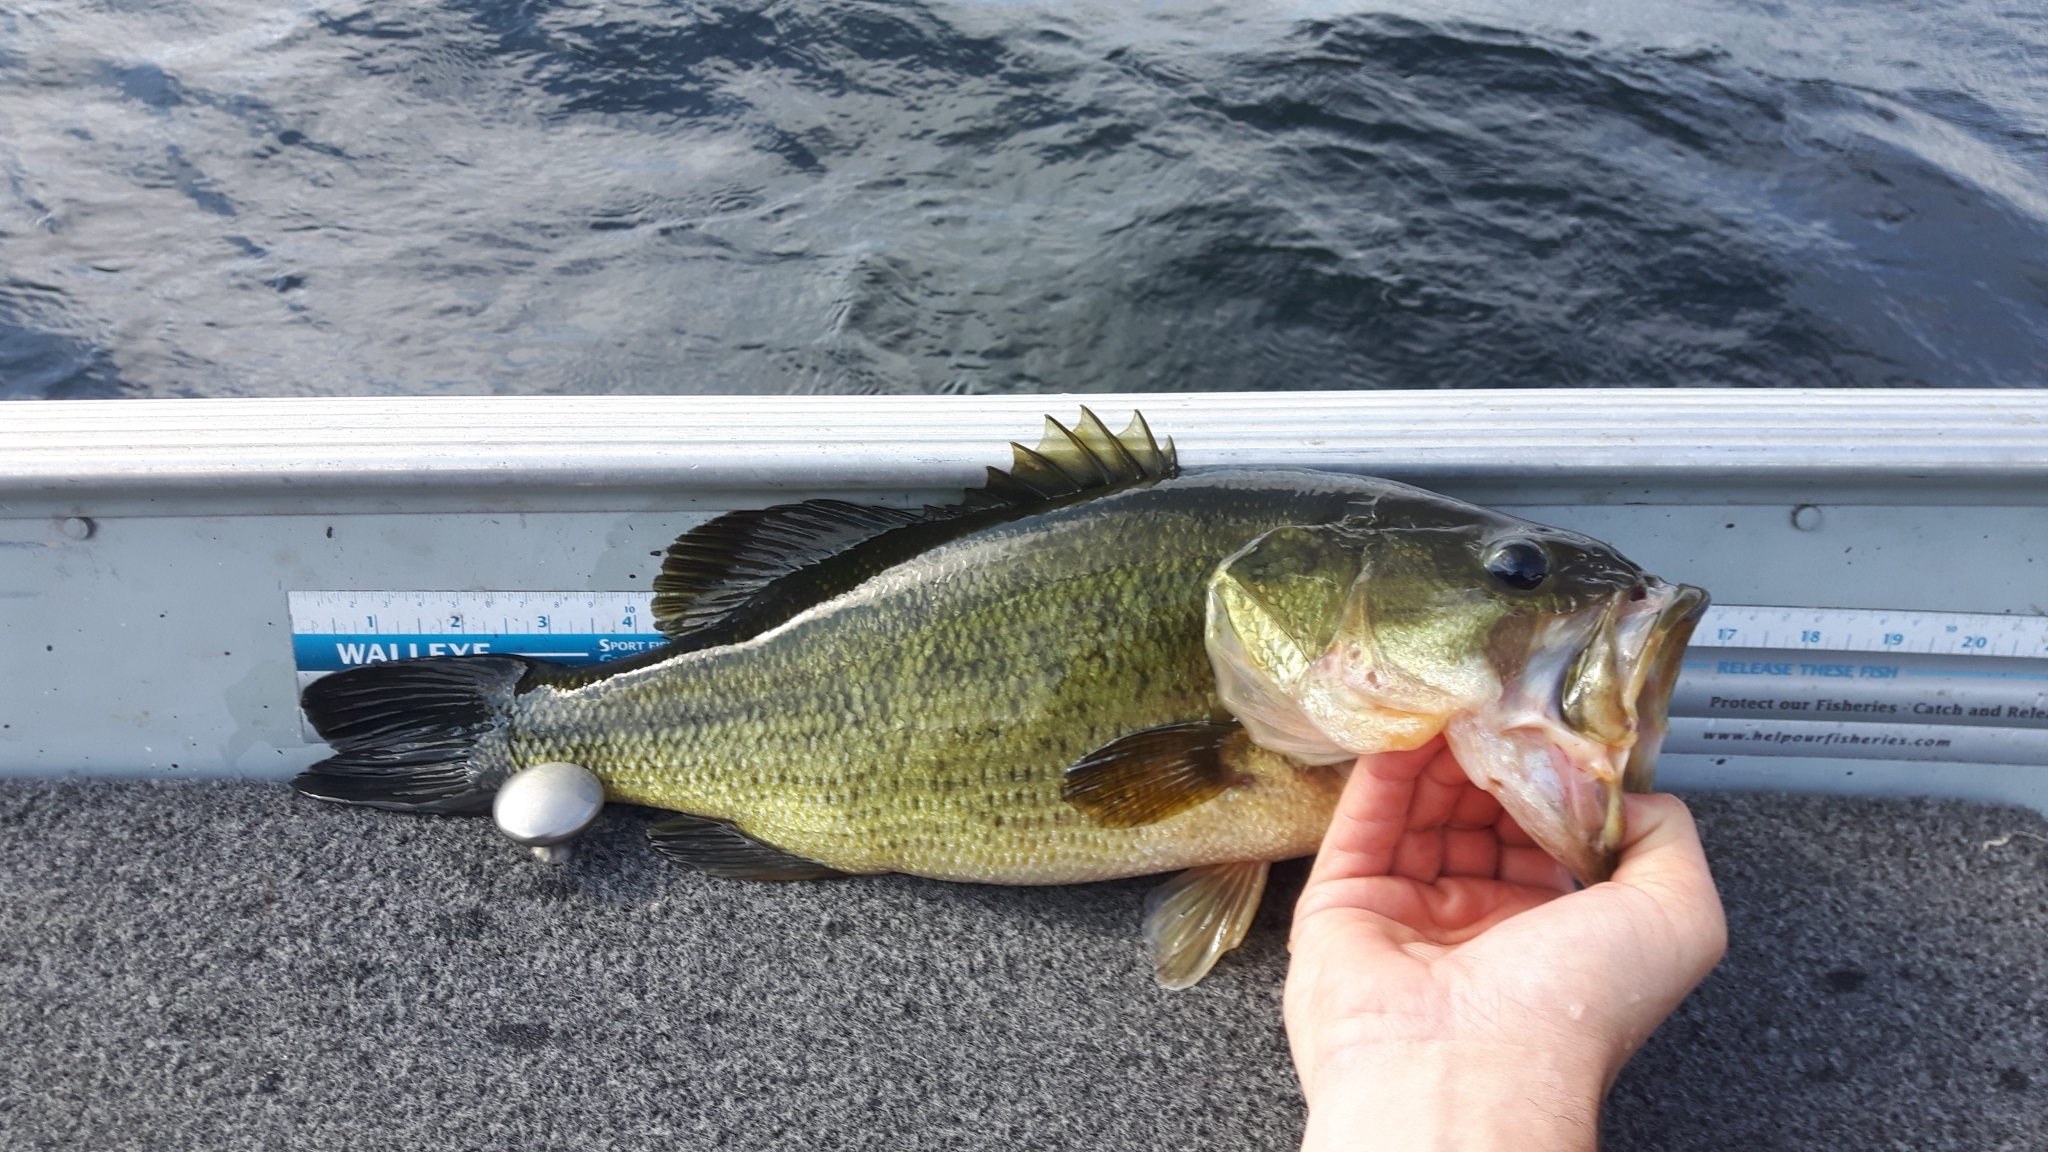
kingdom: Animalia
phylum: Chordata
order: Perciformes
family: Centrarchidae
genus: Micropterus
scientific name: Micropterus
